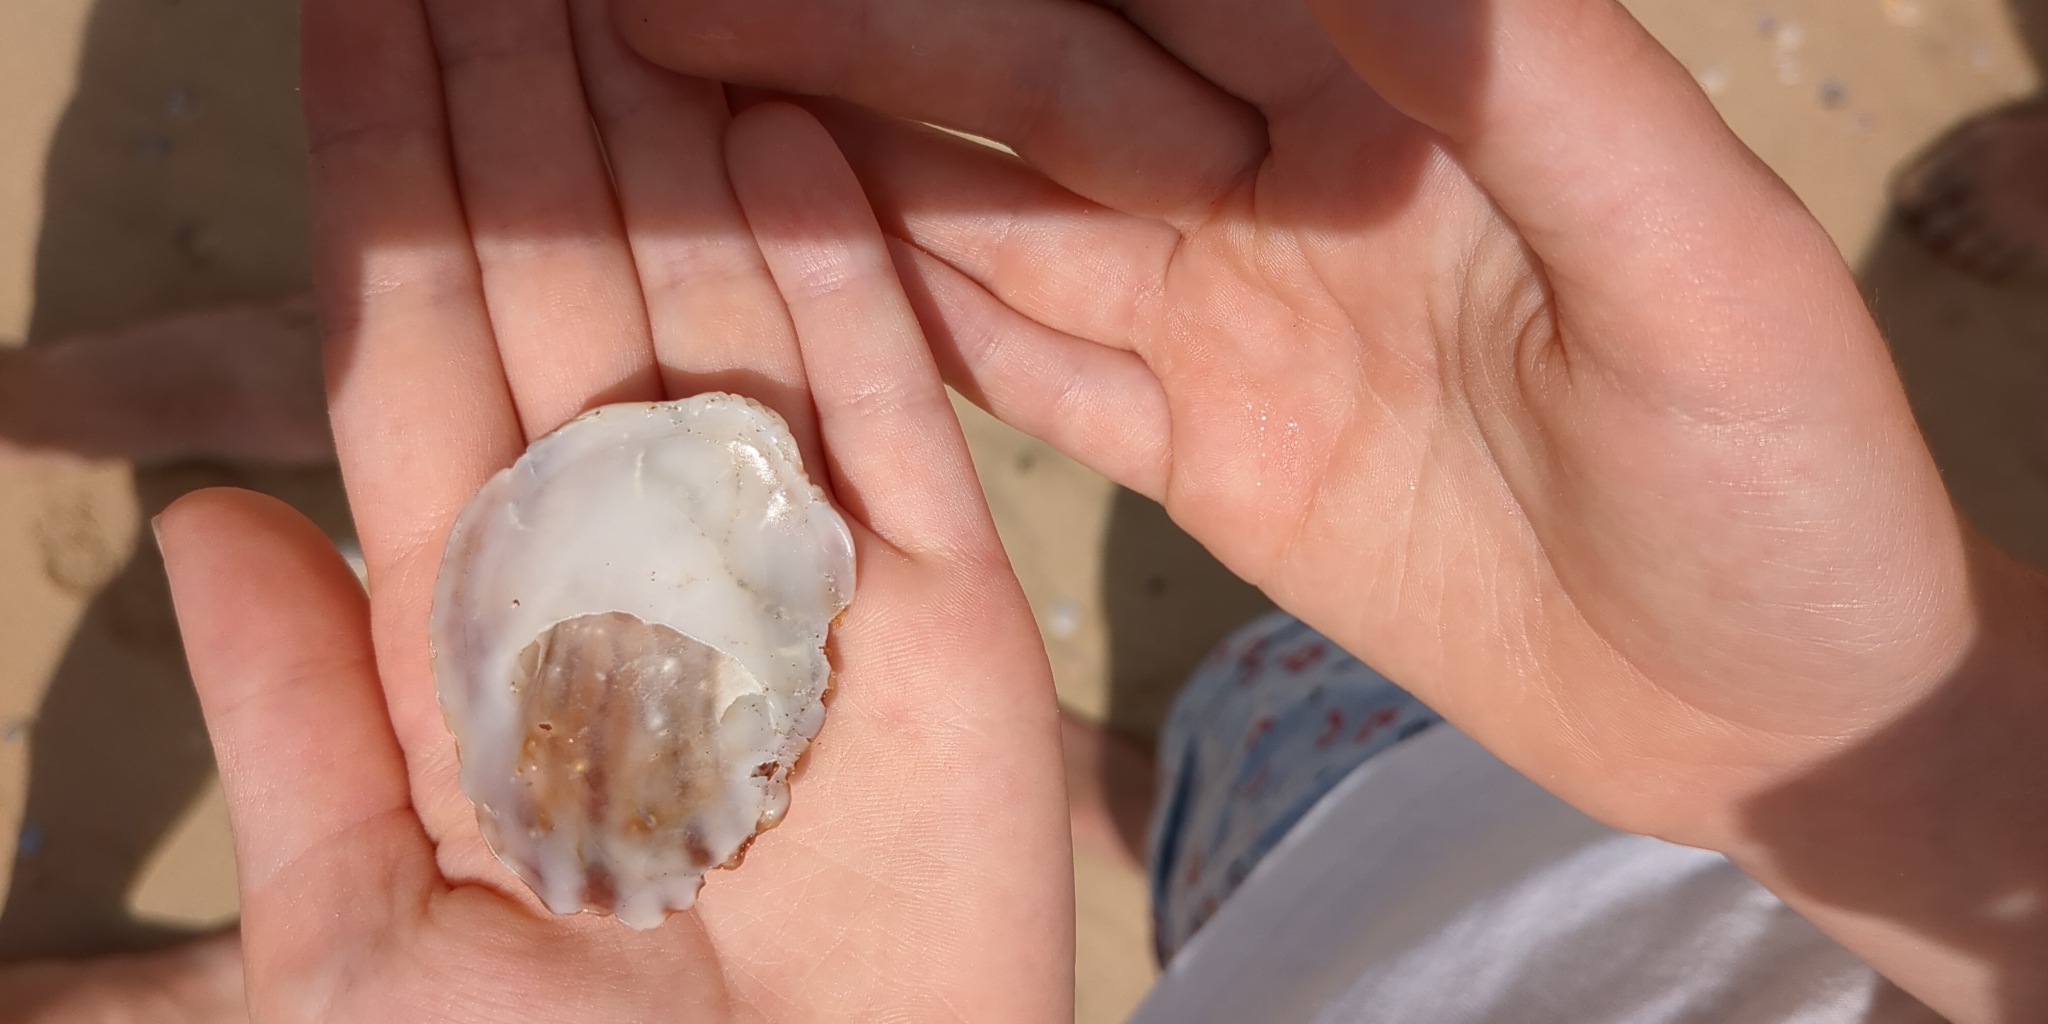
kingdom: Animalia
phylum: Mollusca
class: Gastropoda
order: Littorinimorpha
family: Calyptraeidae
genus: Maoricrypta
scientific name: Maoricrypta costata
